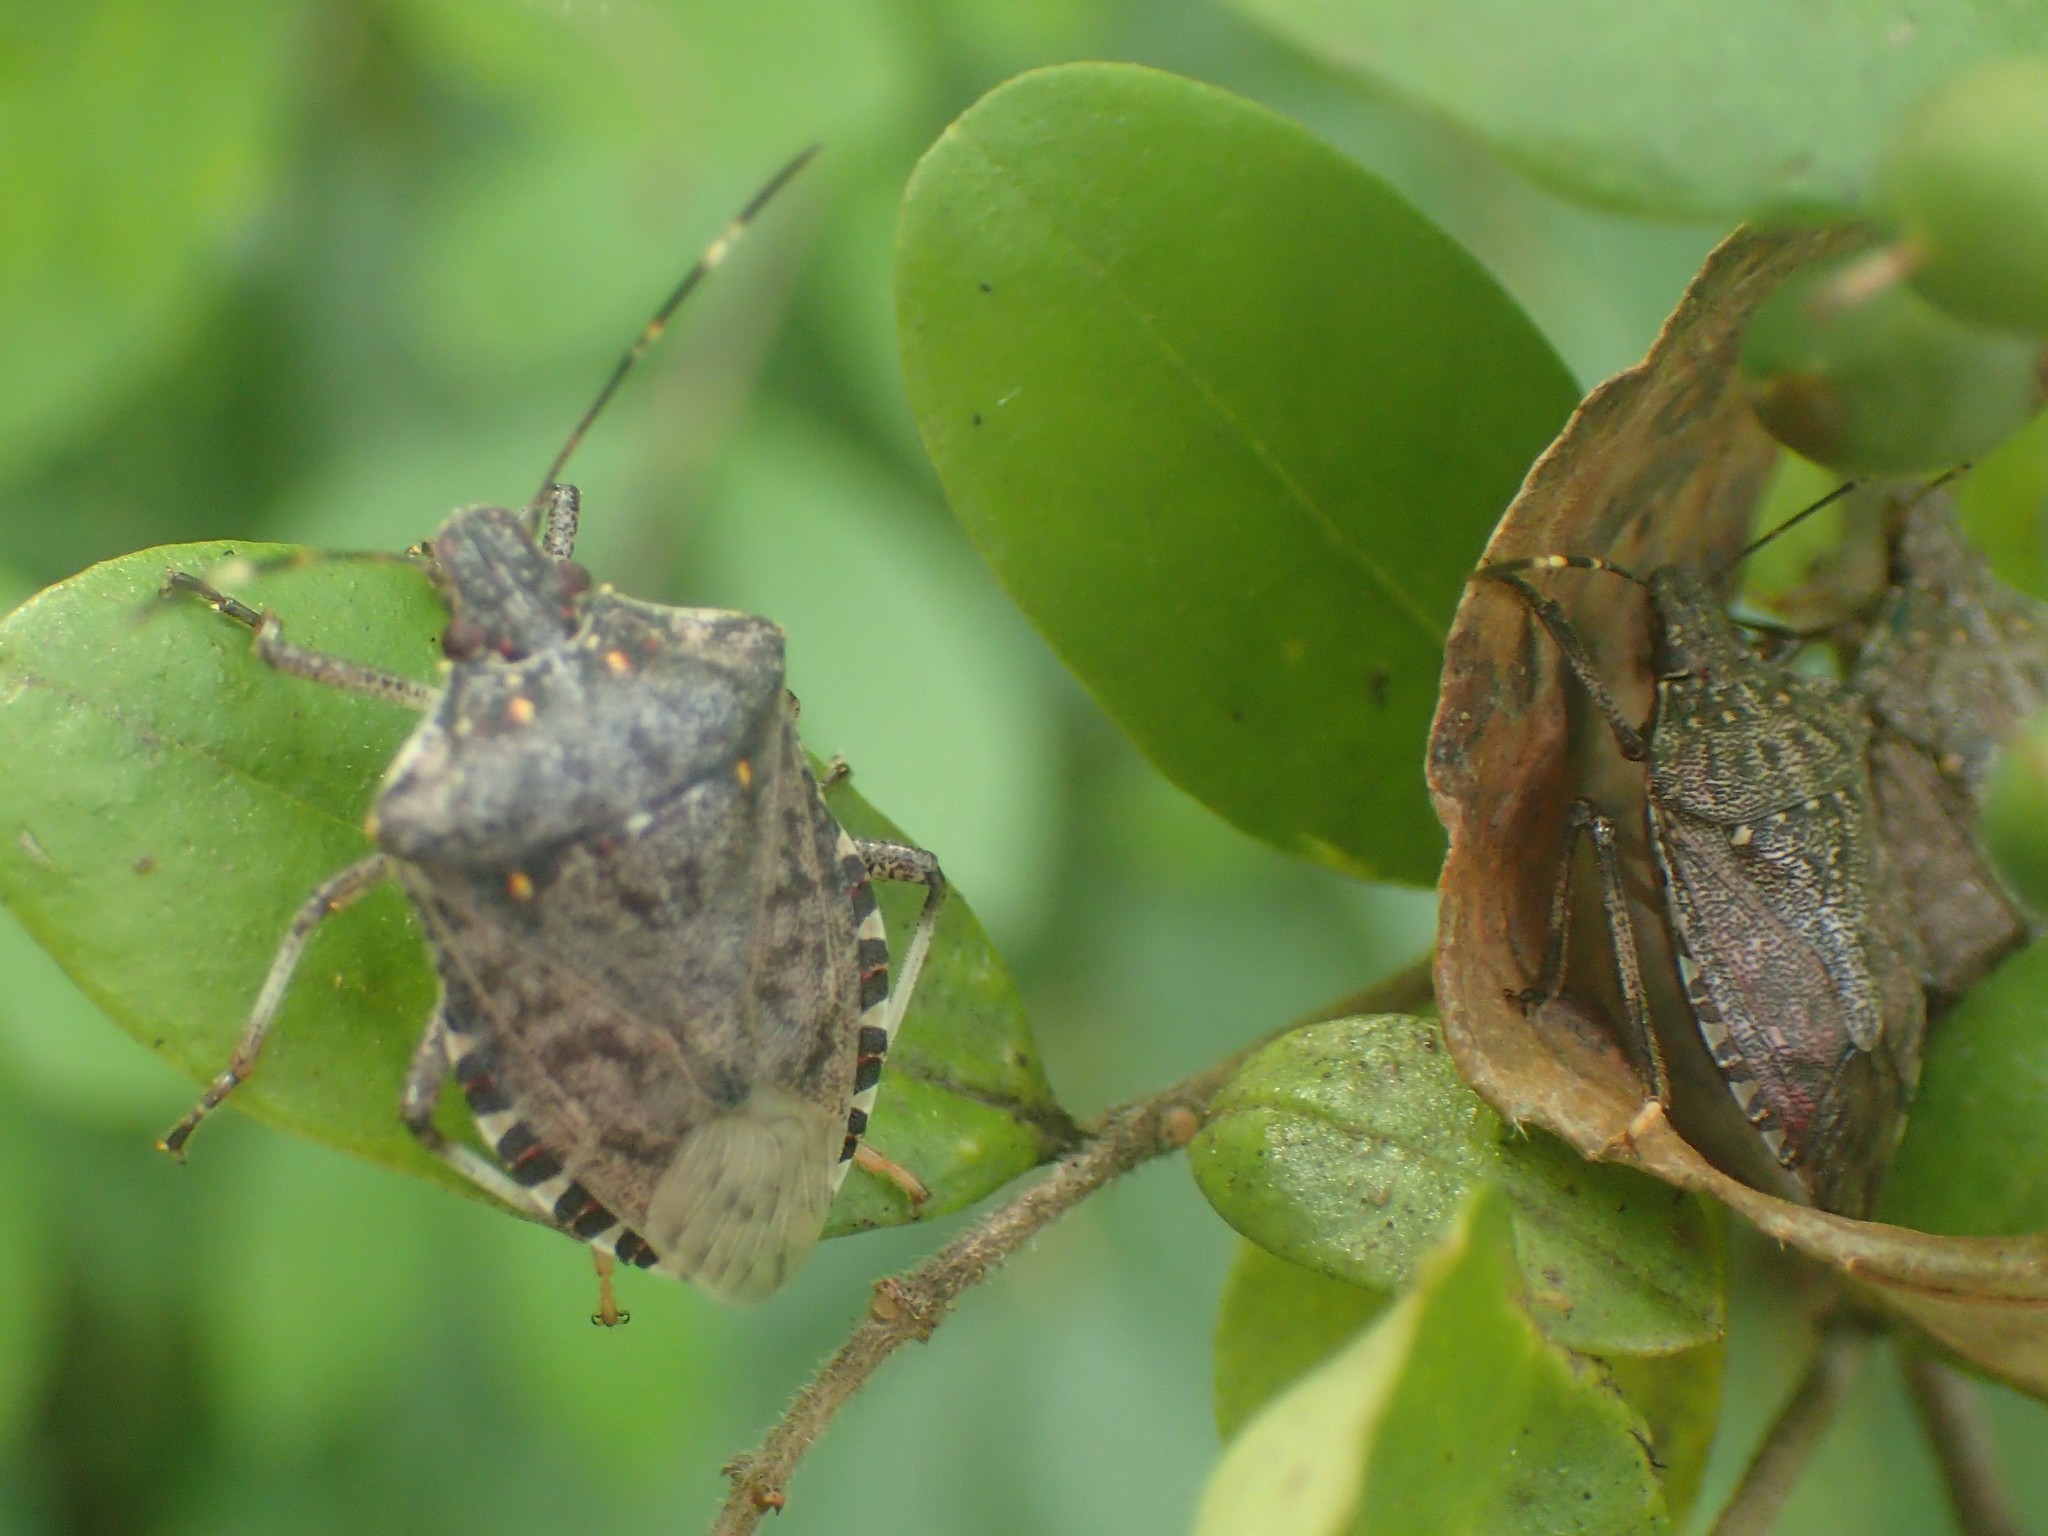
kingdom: Animalia
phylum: Arthropoda
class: Insecta
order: Hemiptera
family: Pentatomidae
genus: Halyomorpha
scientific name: Halyomorpha halys
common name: Brown marmorated stink bug
